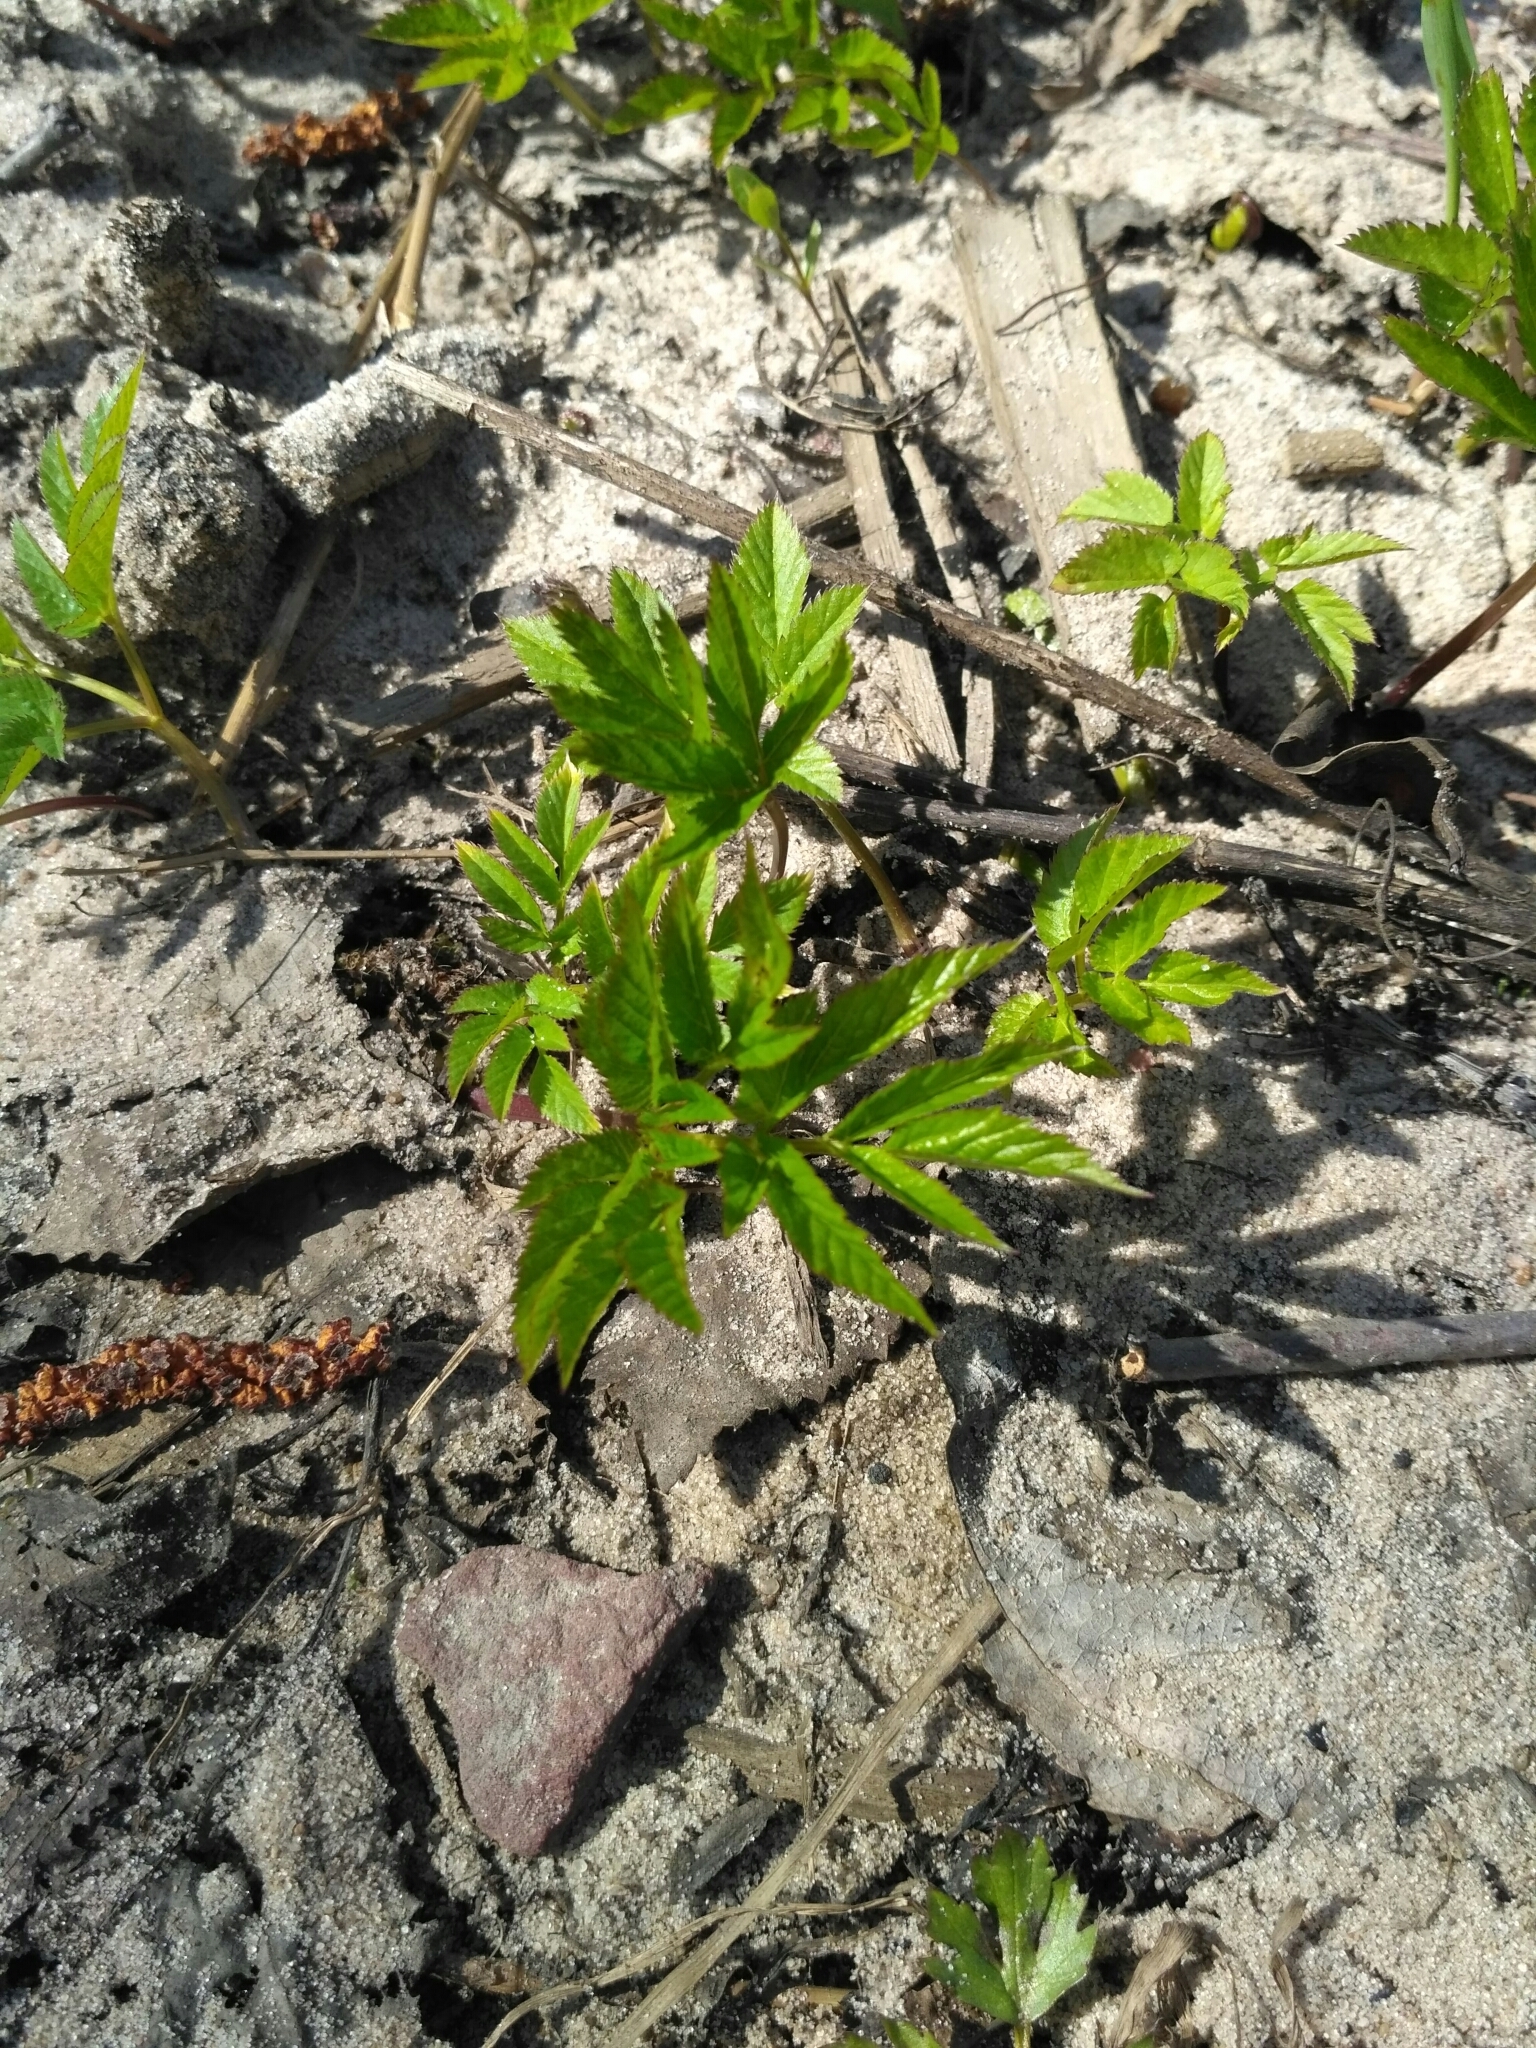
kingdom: Plantae
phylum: Tracheophyta
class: Magnoliopsida
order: Apiales
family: Apiaceae
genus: Aegopodium
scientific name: Aegopodium podagraria
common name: Ground-elder
